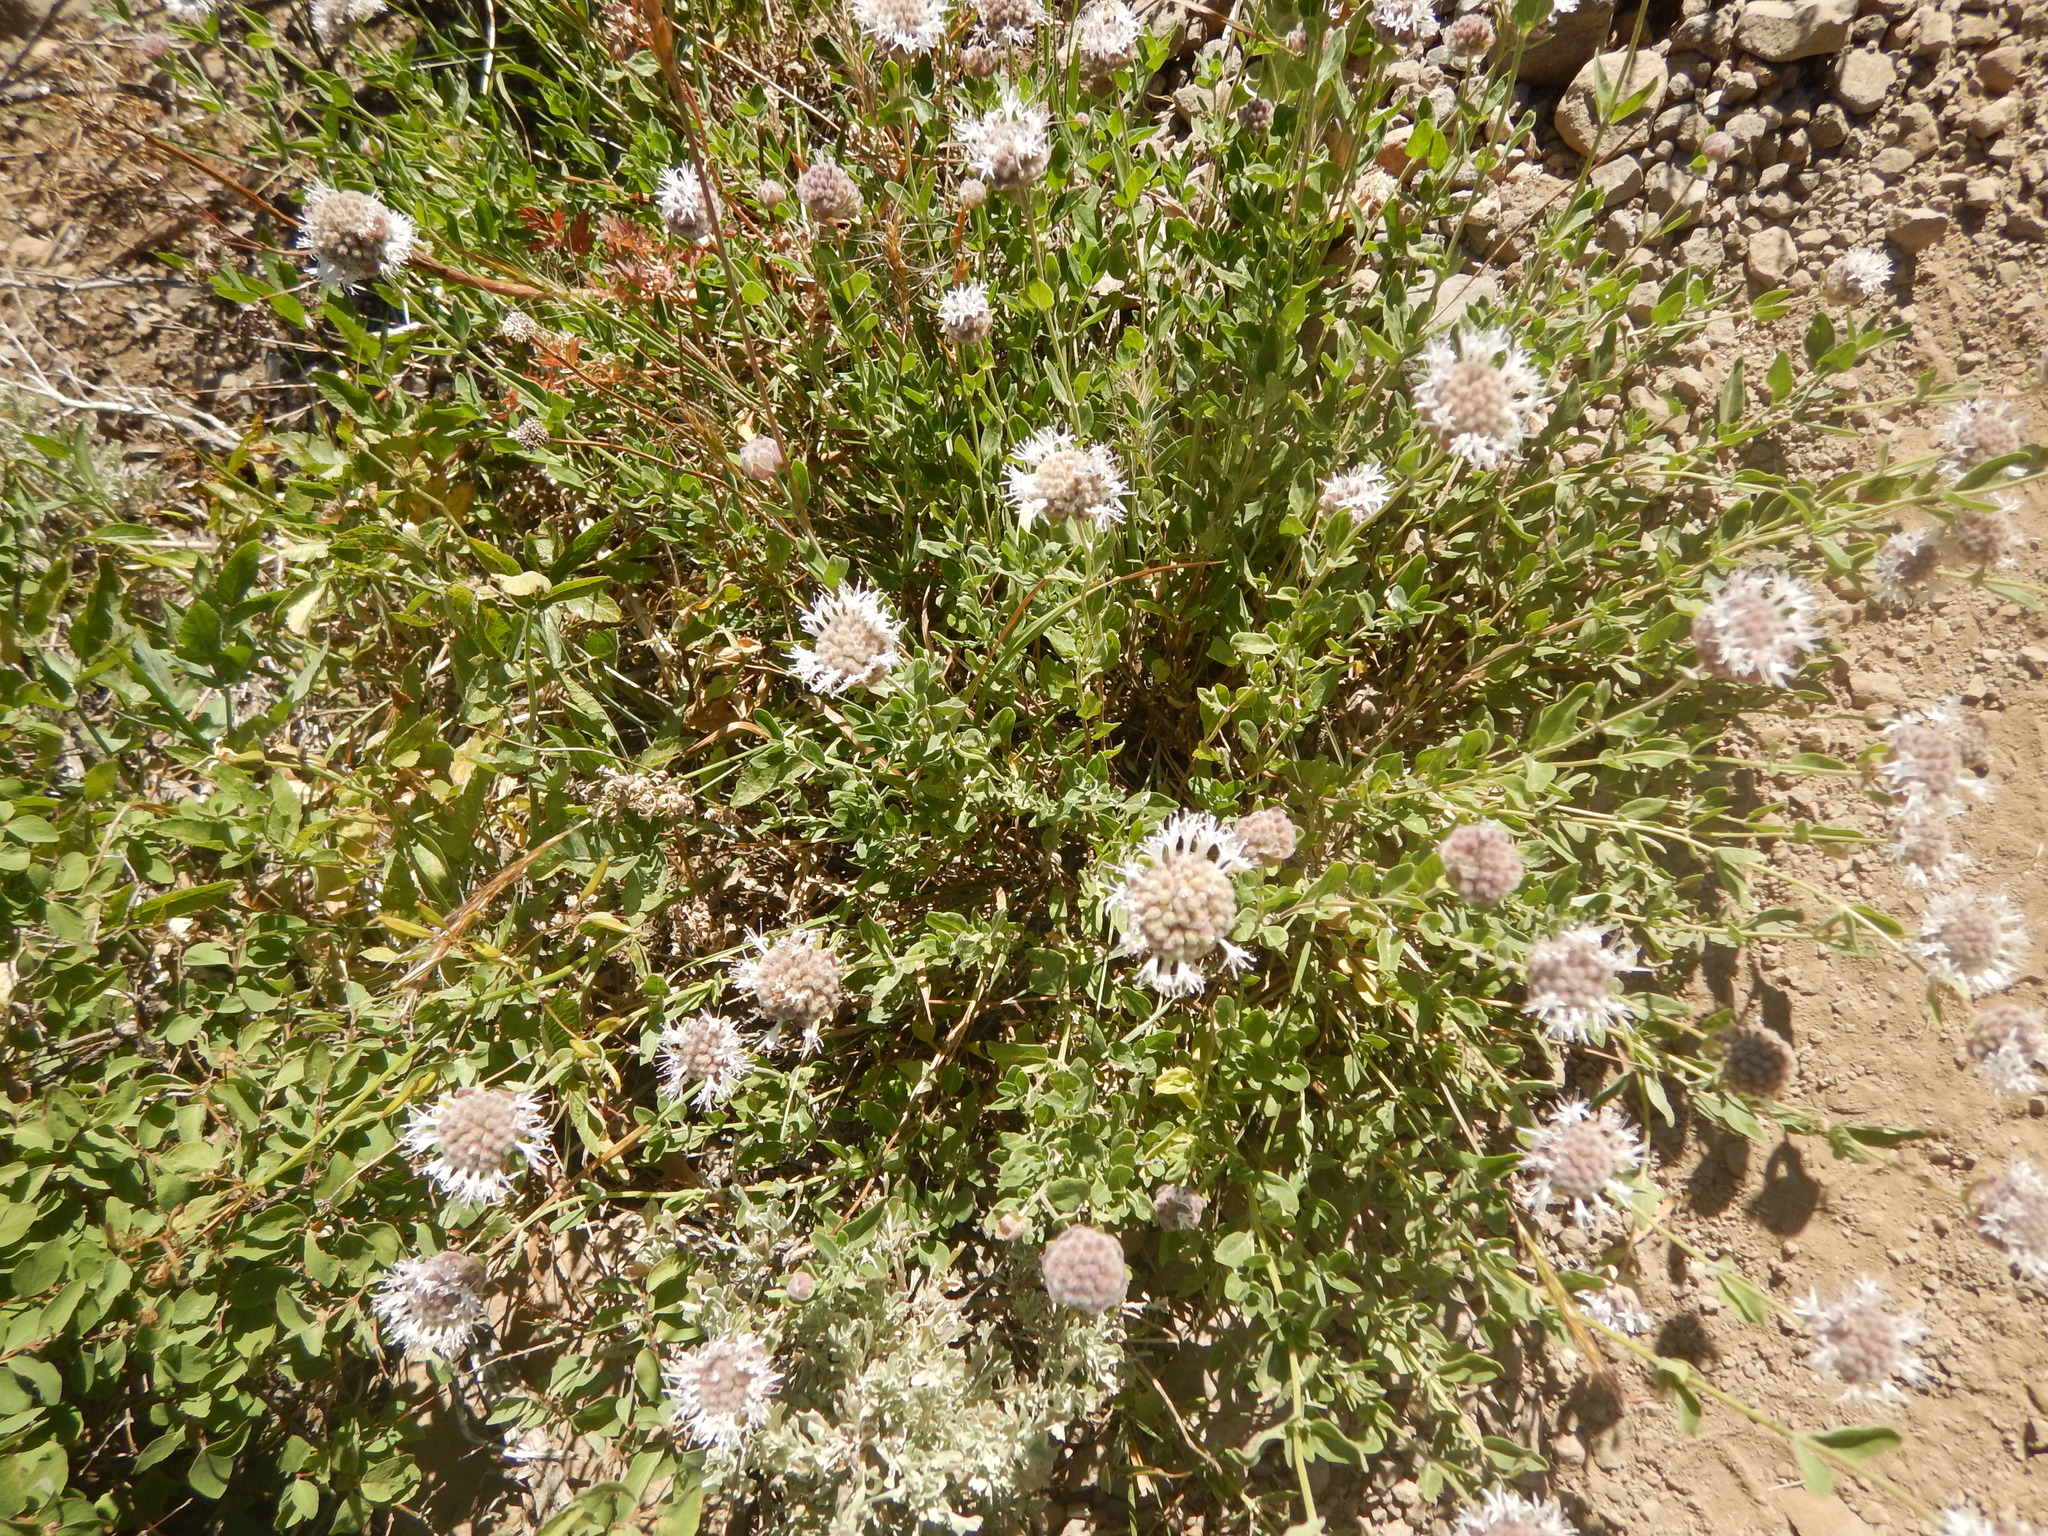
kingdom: Plantae
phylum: Tracheophyta
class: Magnoliopsida
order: Lamiales
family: Lamiaceae
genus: Monardella
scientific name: Monardella odoratissima
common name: Pacific monardella
